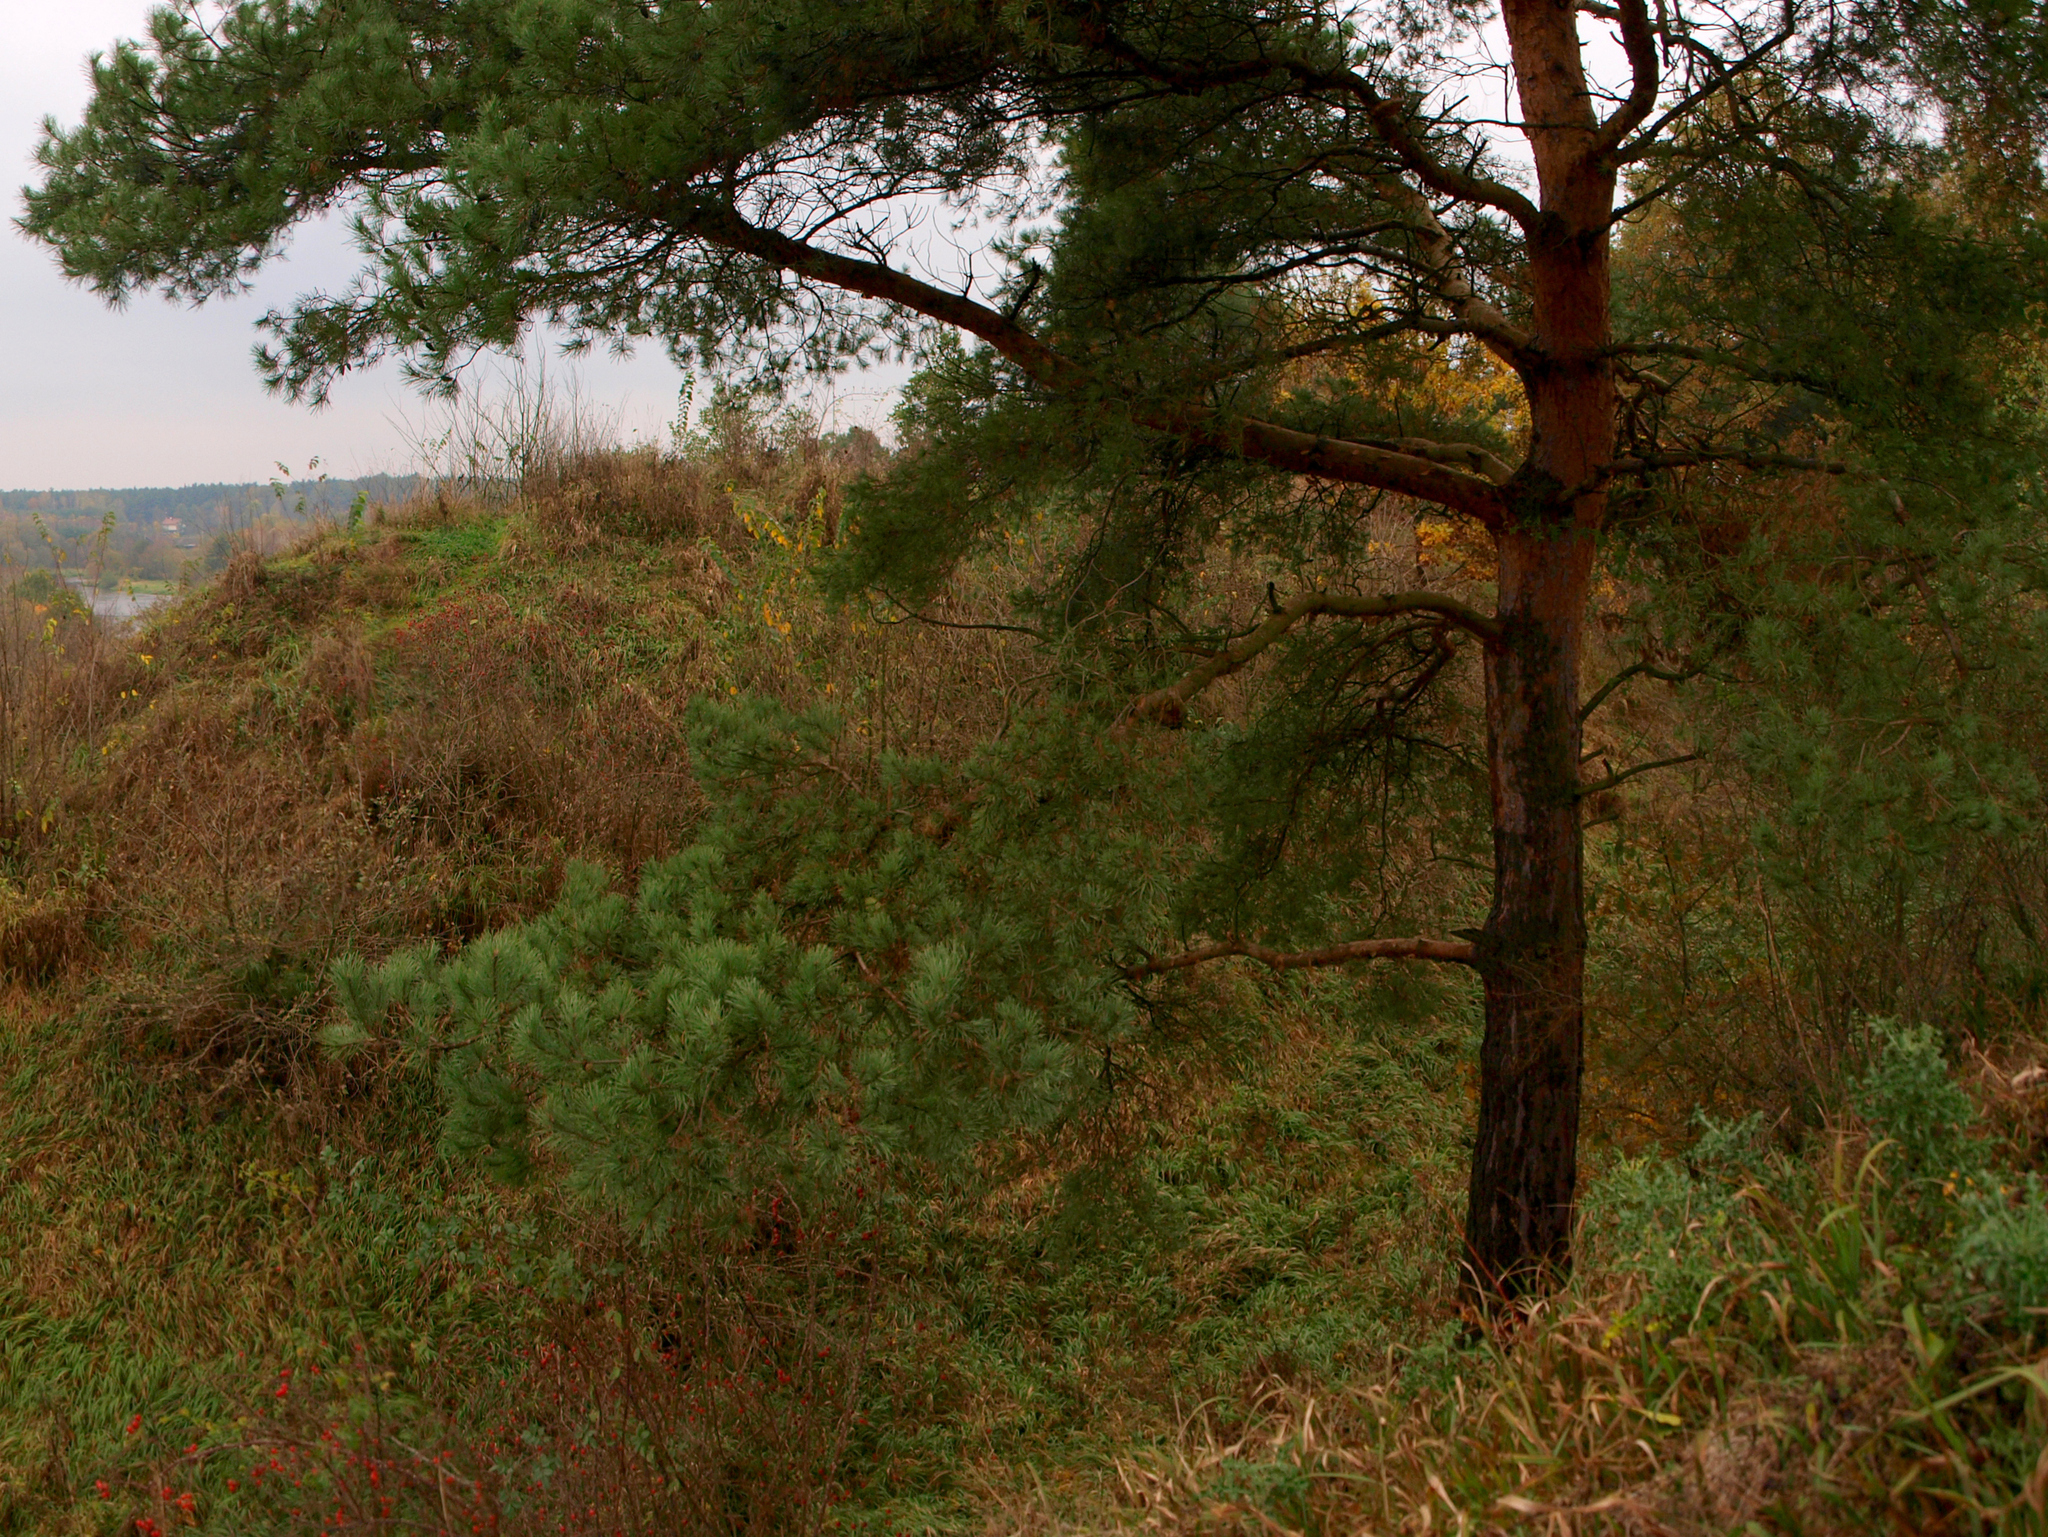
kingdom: Plantae
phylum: Tracheophyta
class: Pinopsida
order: Pinales
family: Pinaceae
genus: Pinus
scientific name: Pinus sylvestris
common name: Scots pine
